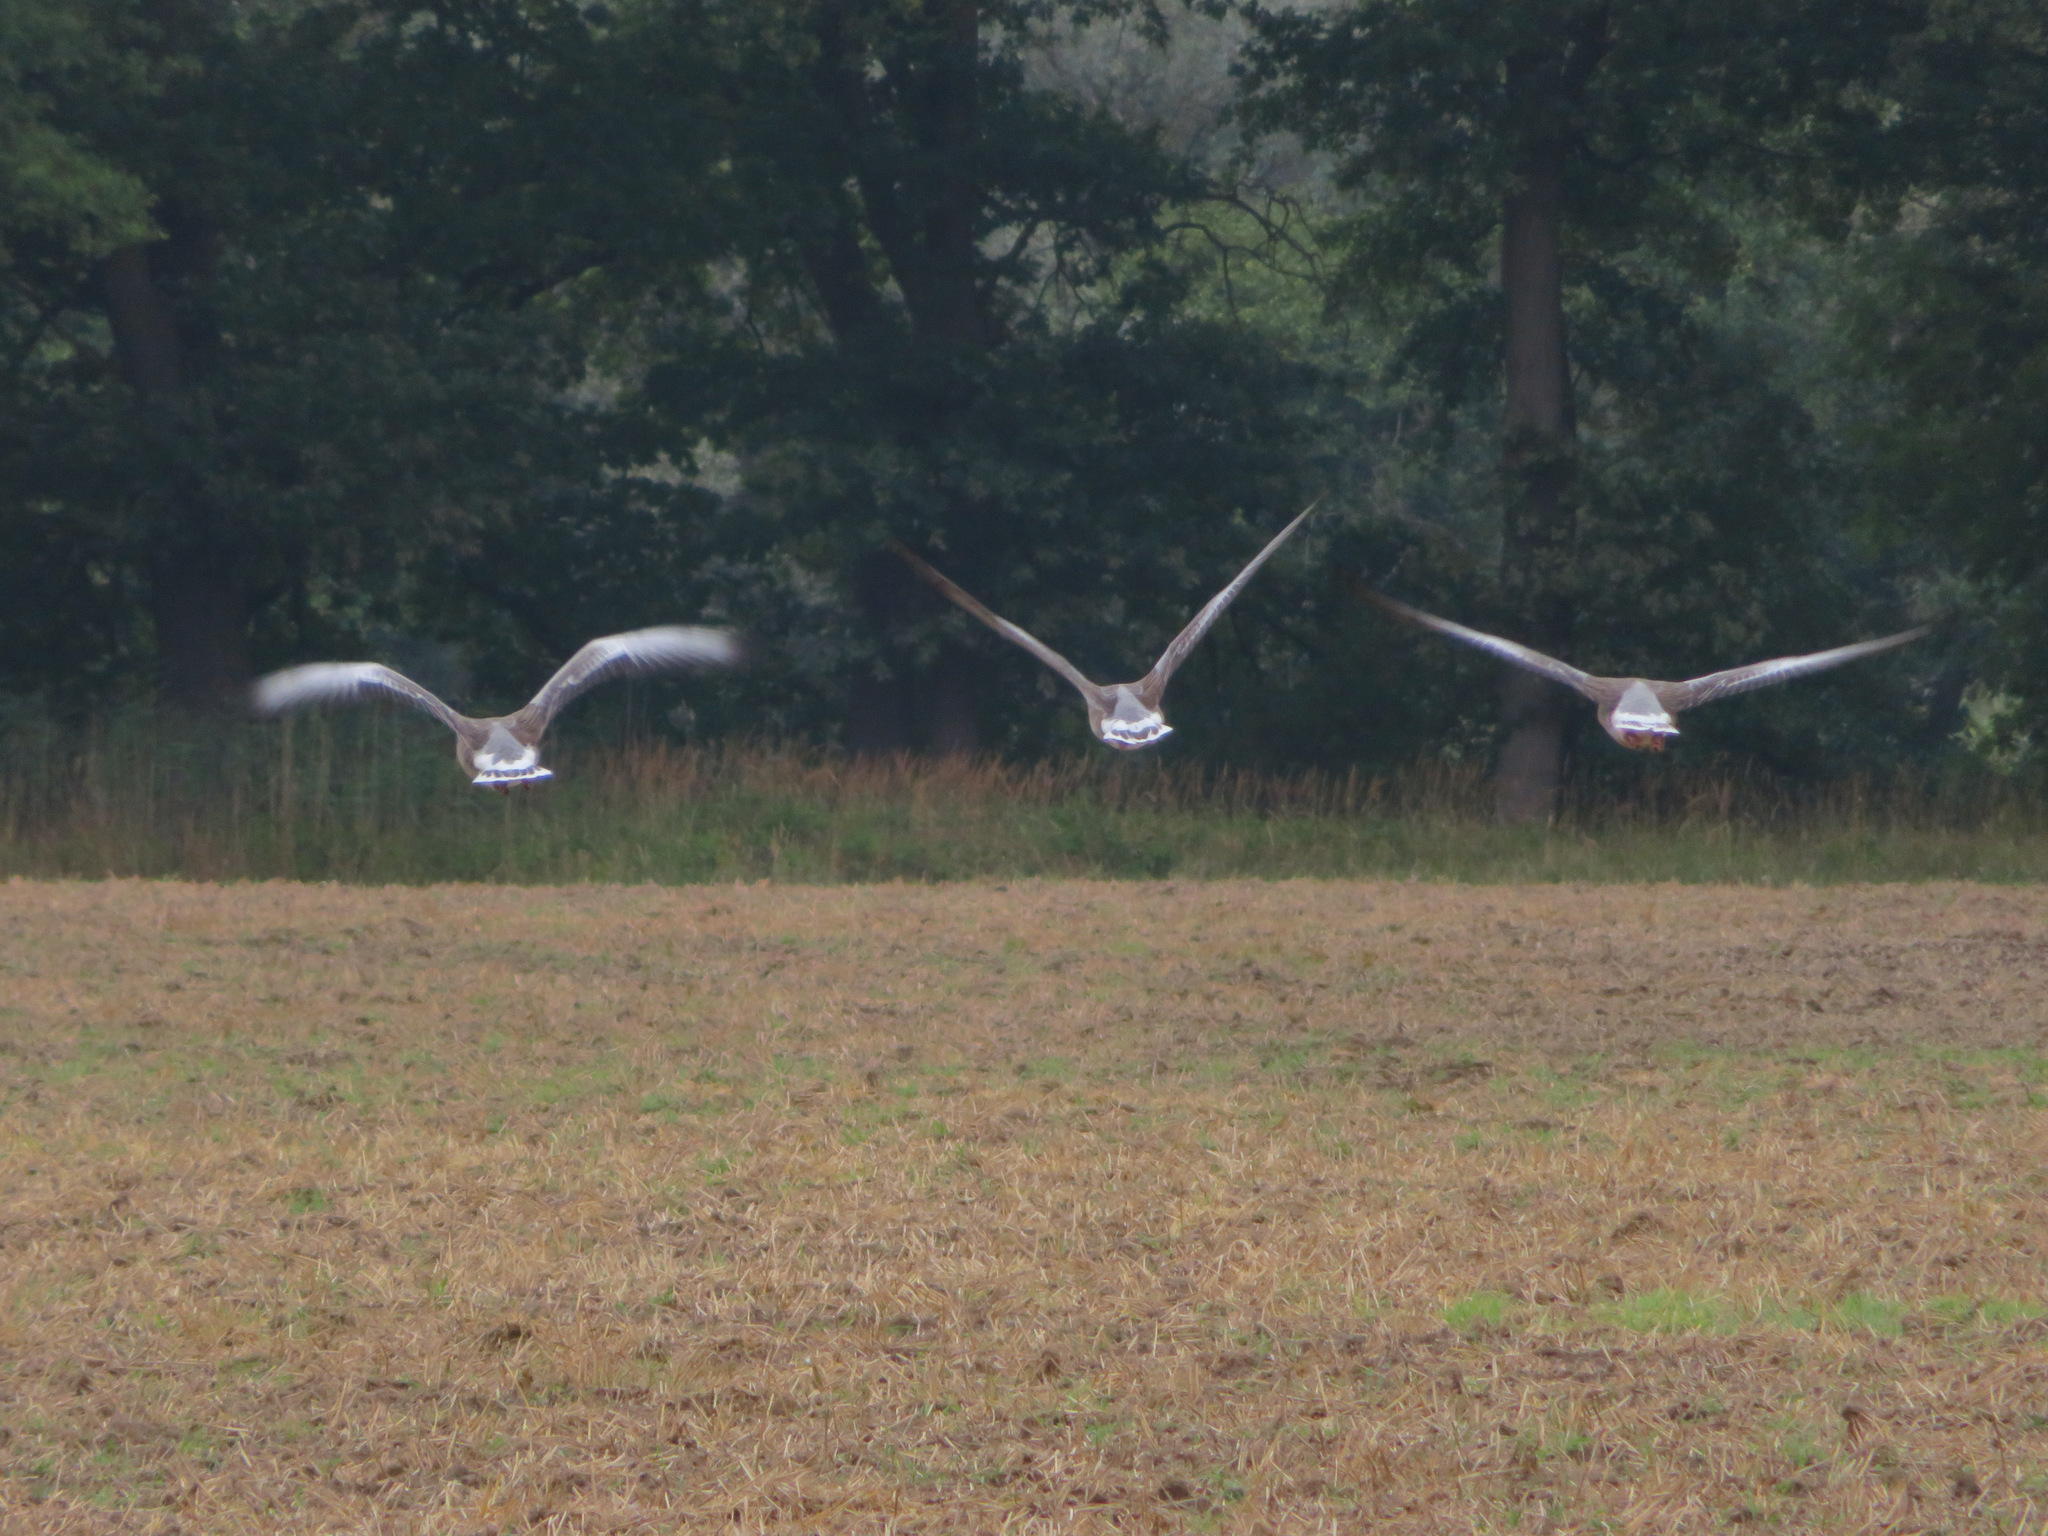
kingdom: Animalia
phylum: Chordata
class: Aves
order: Anseriformes
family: Anatidae
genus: Anser
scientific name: Anser anser
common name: Greylag goose
